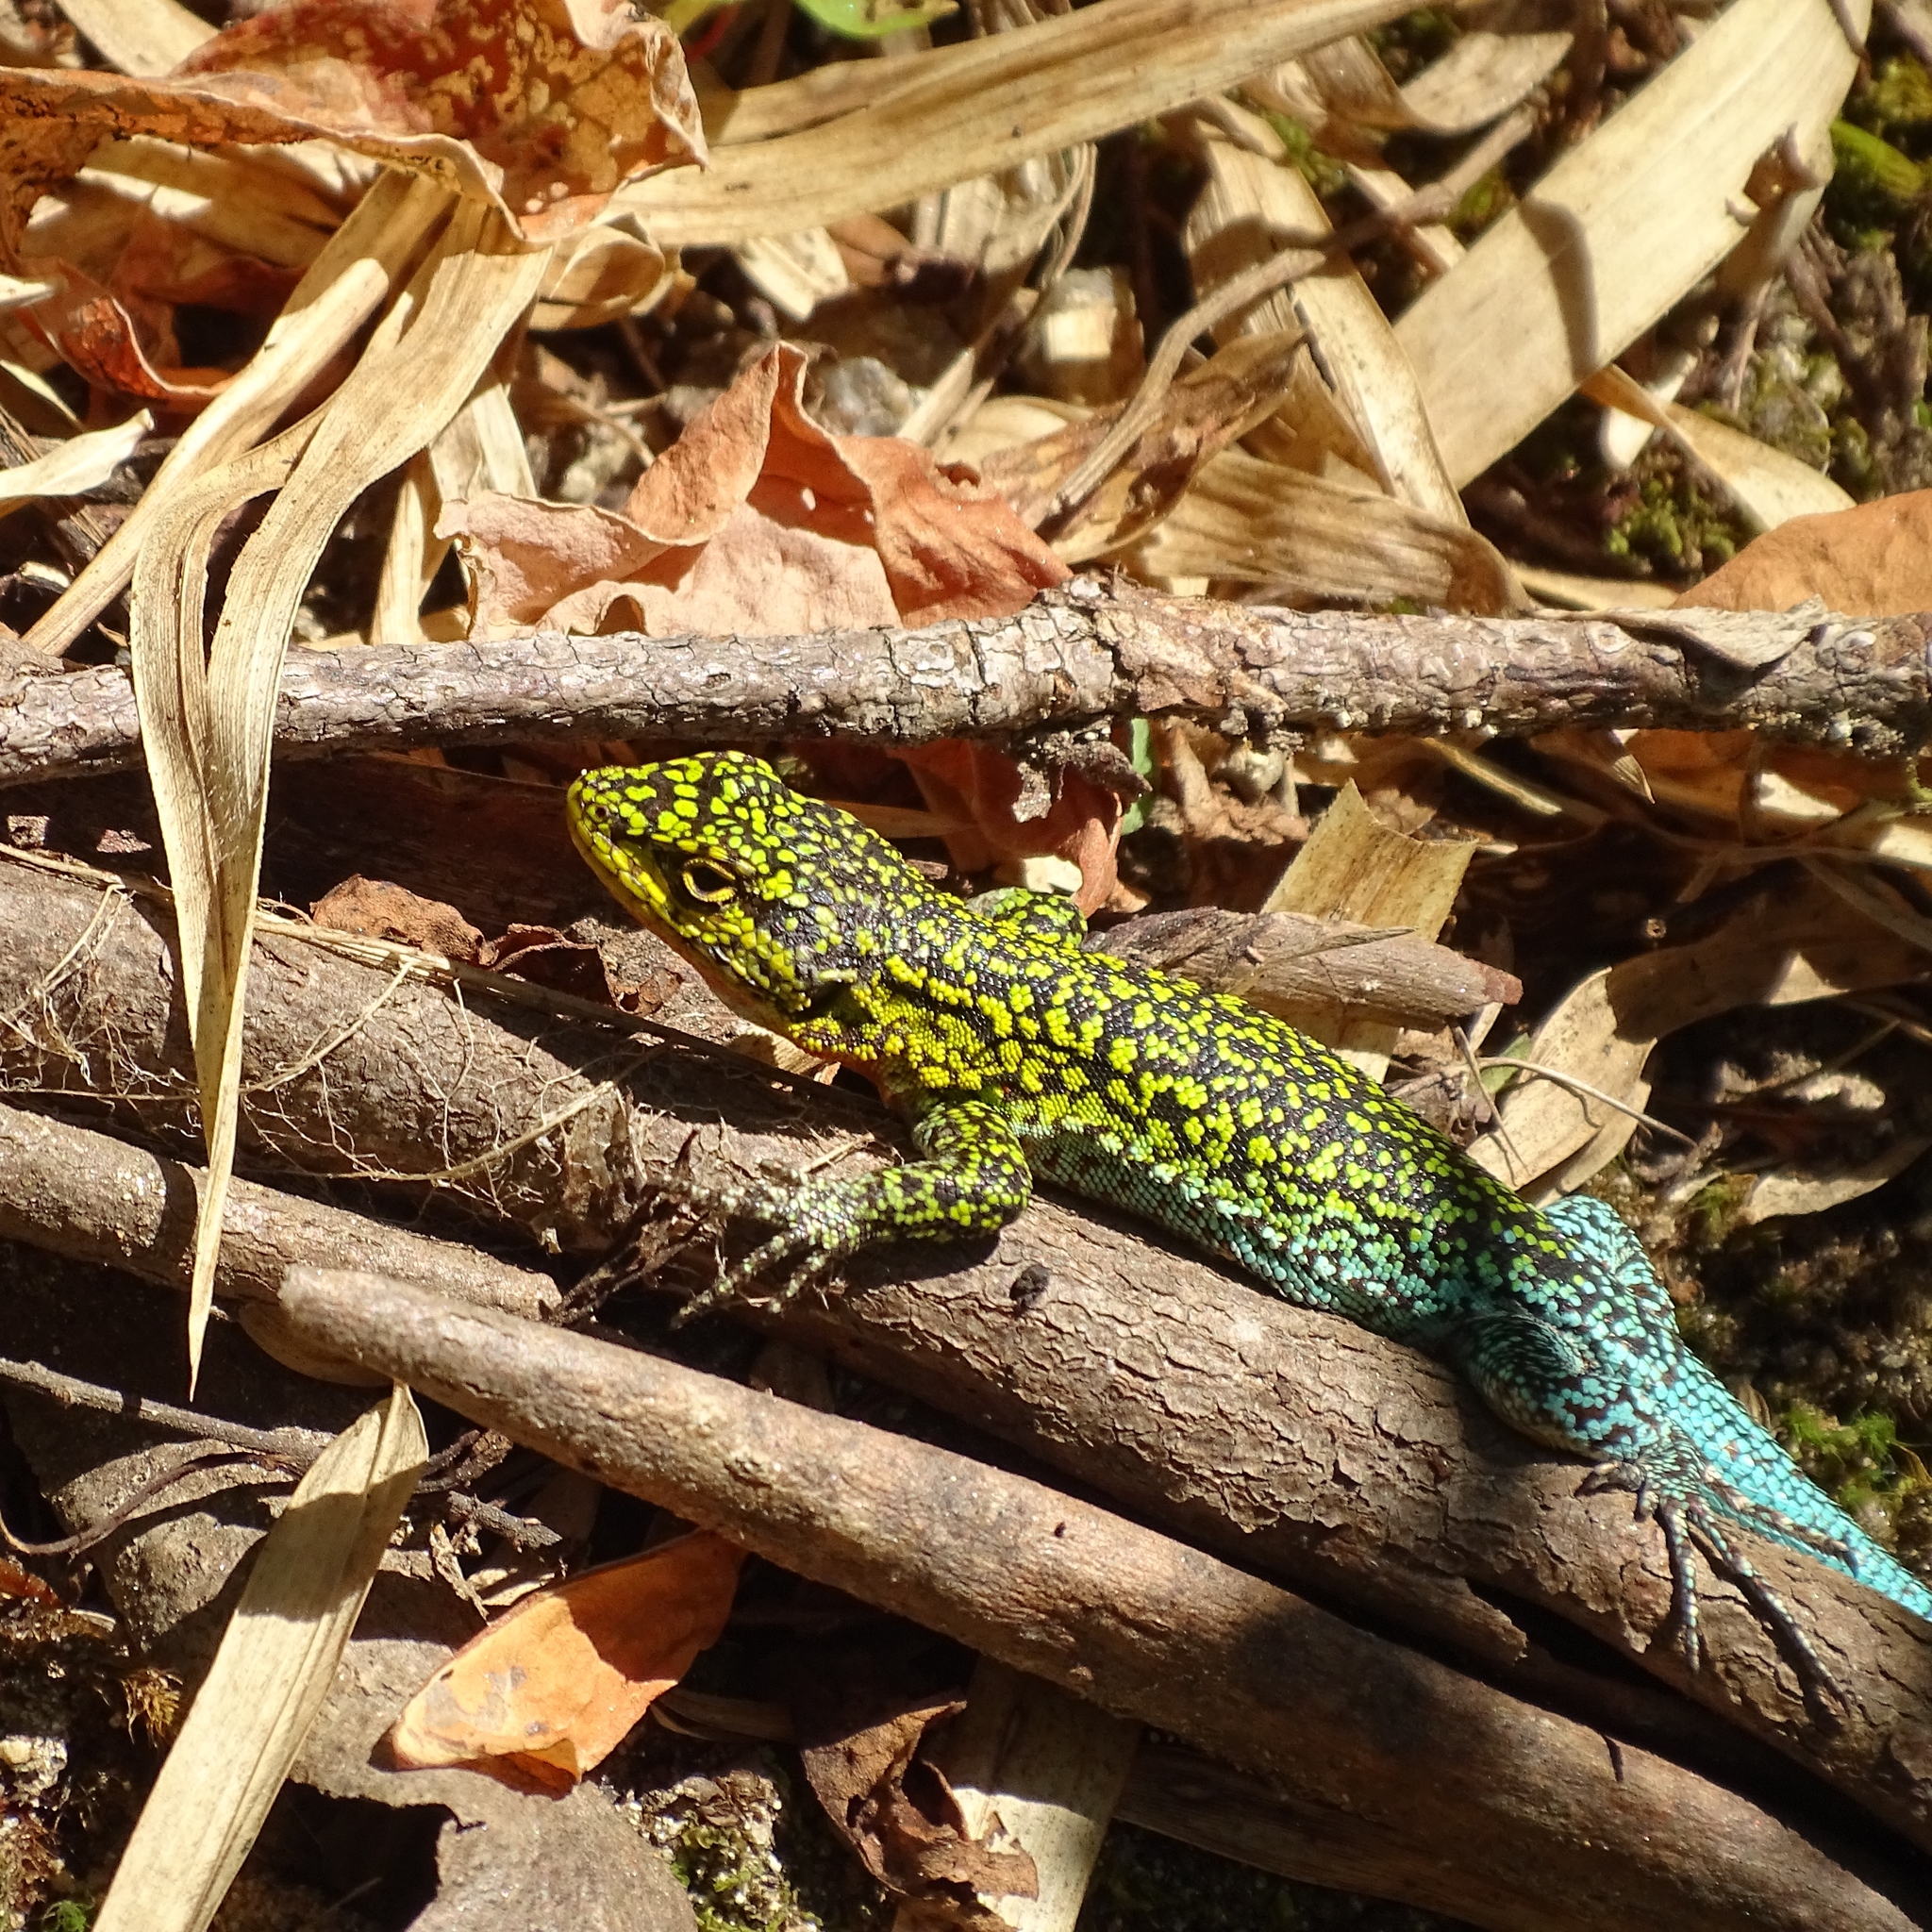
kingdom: Animalia
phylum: Chordata
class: Squamata
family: Liolaemidae
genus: Liolaemus
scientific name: Liolaemus tenuis
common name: Thin tree iguana
